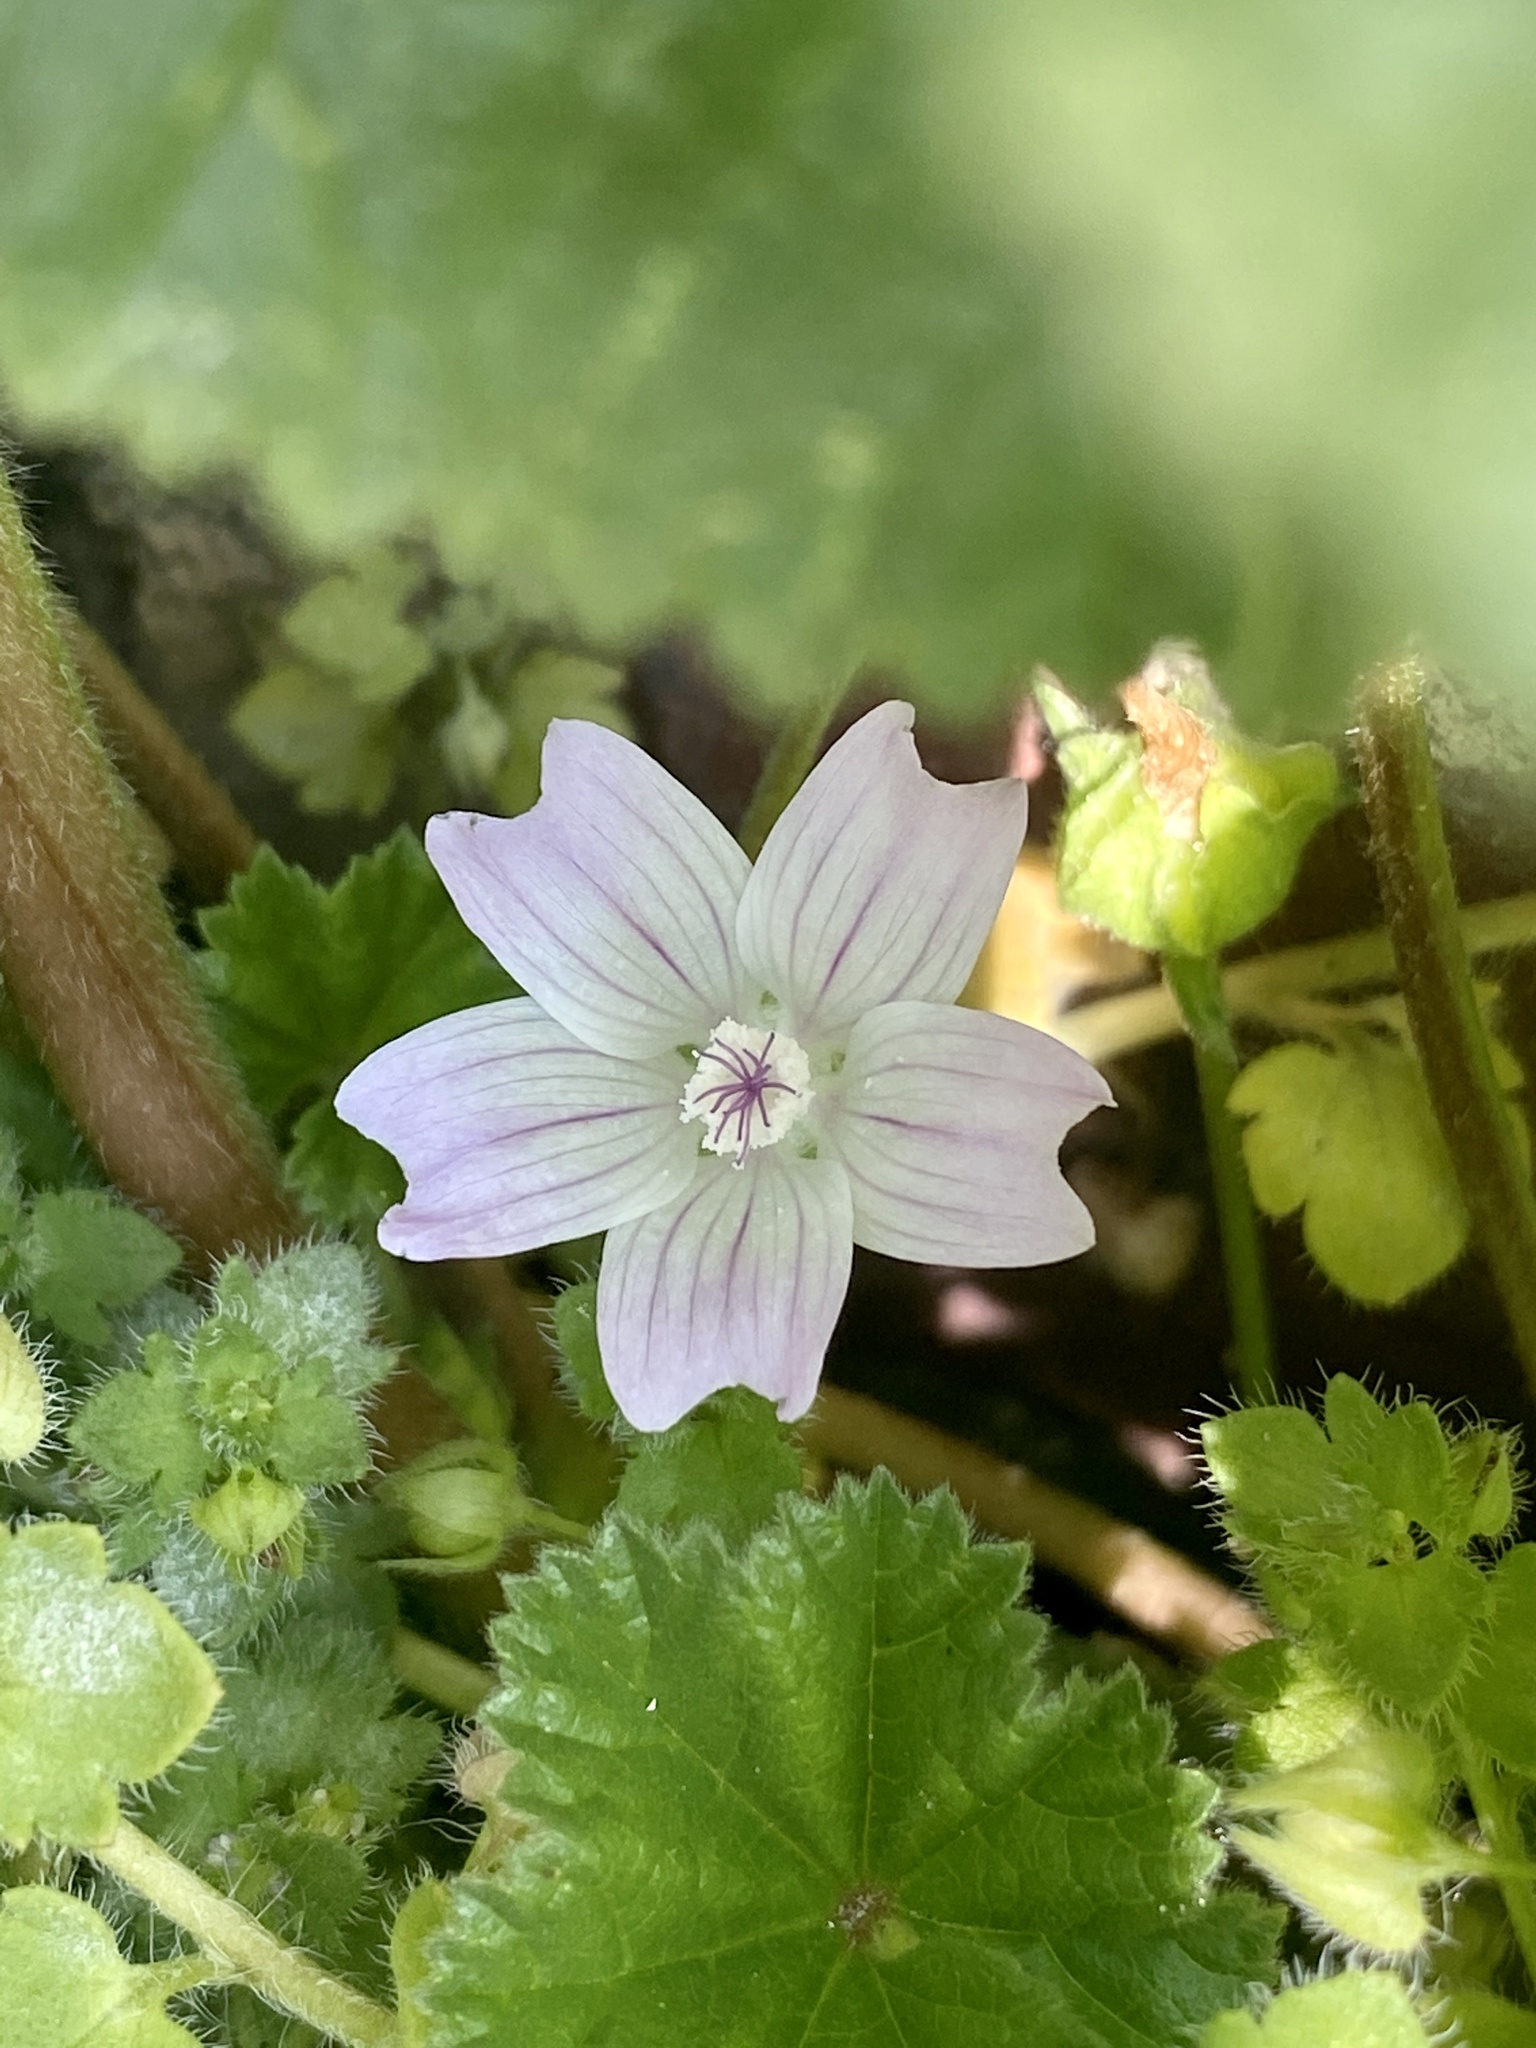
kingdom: Plantae
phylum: Tracheophyta
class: Magnoliopsida
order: Malvales
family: Malvaceae
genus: Malva
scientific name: Malva neglecta
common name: Common mallow
